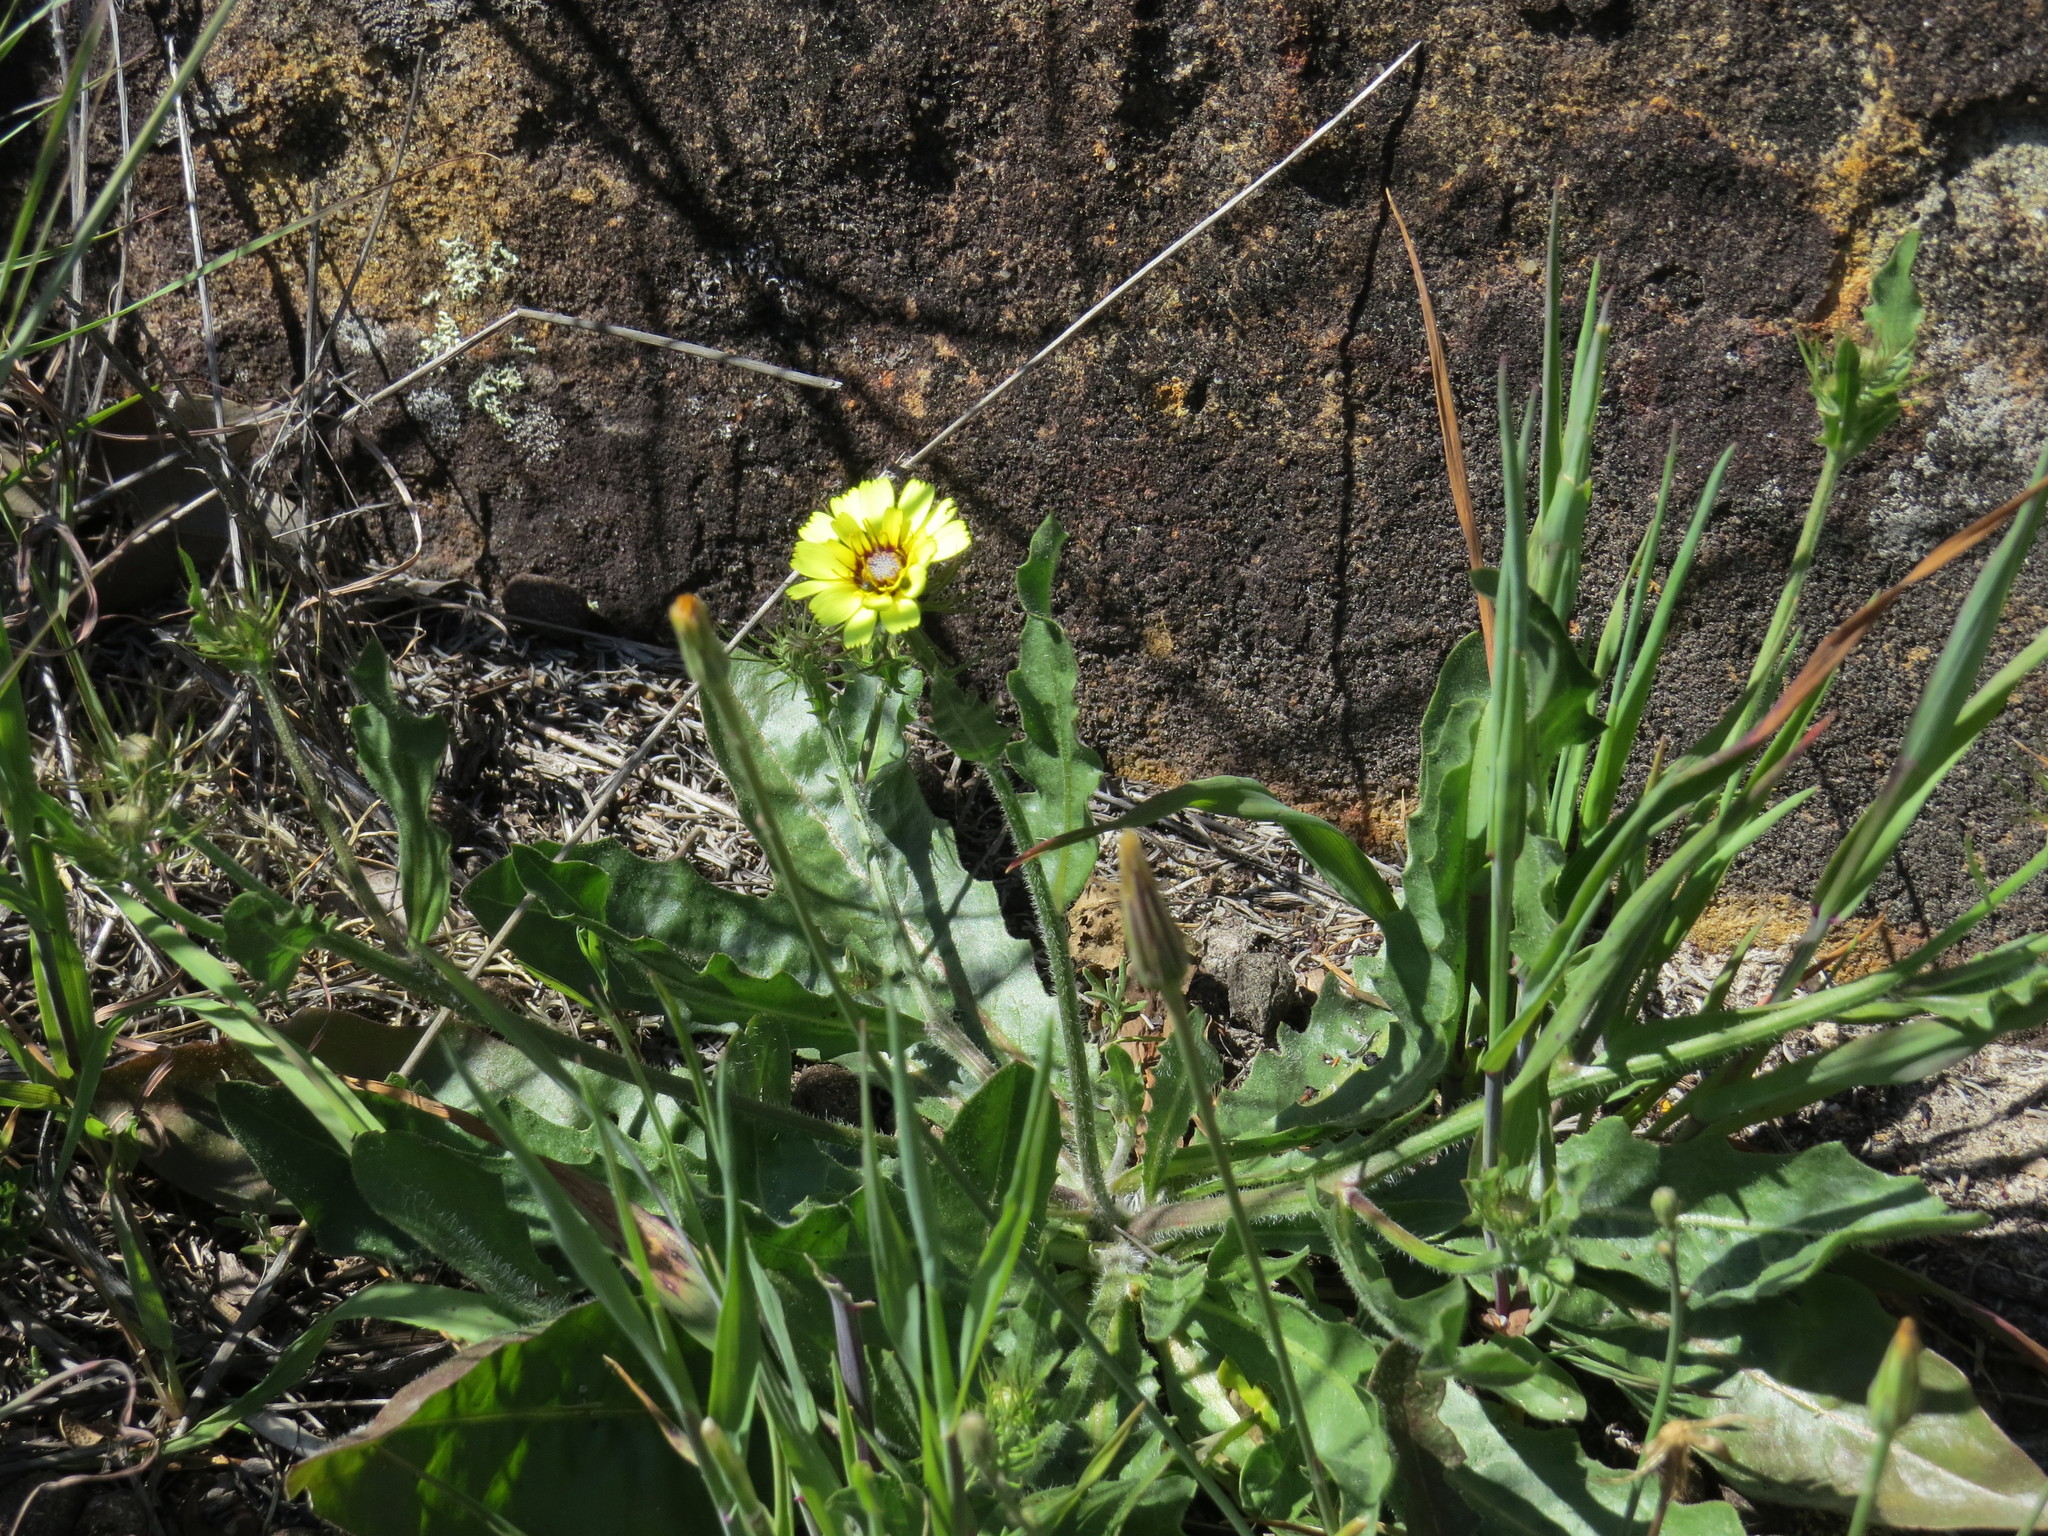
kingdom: Plantae
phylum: Tracheophyta
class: Magnoliopsida
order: Asterales
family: Asteraceae
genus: Tolpis
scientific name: Tolpis barbata
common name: Yellow hawkweed
